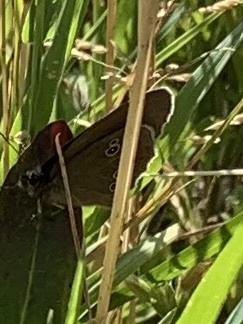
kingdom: Animalia
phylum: Arthropoda
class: Insecta
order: Lepidoptera
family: Nymphalidae
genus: Aphantopus
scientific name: Aphantopus hyperantus
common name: Ringlet
